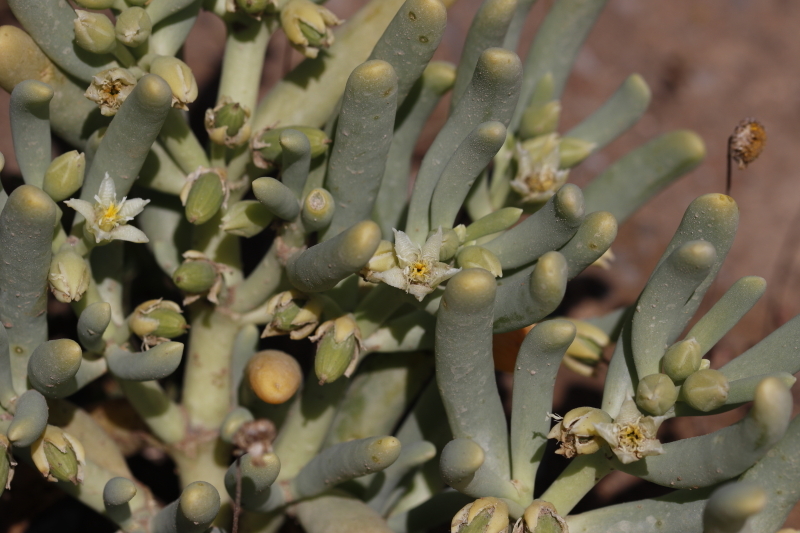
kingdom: Plantae
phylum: Tracheophyta
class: Magnoliopsida
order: Zygophyllales
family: Zygophyllaceae
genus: Augea
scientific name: Augea capensis
